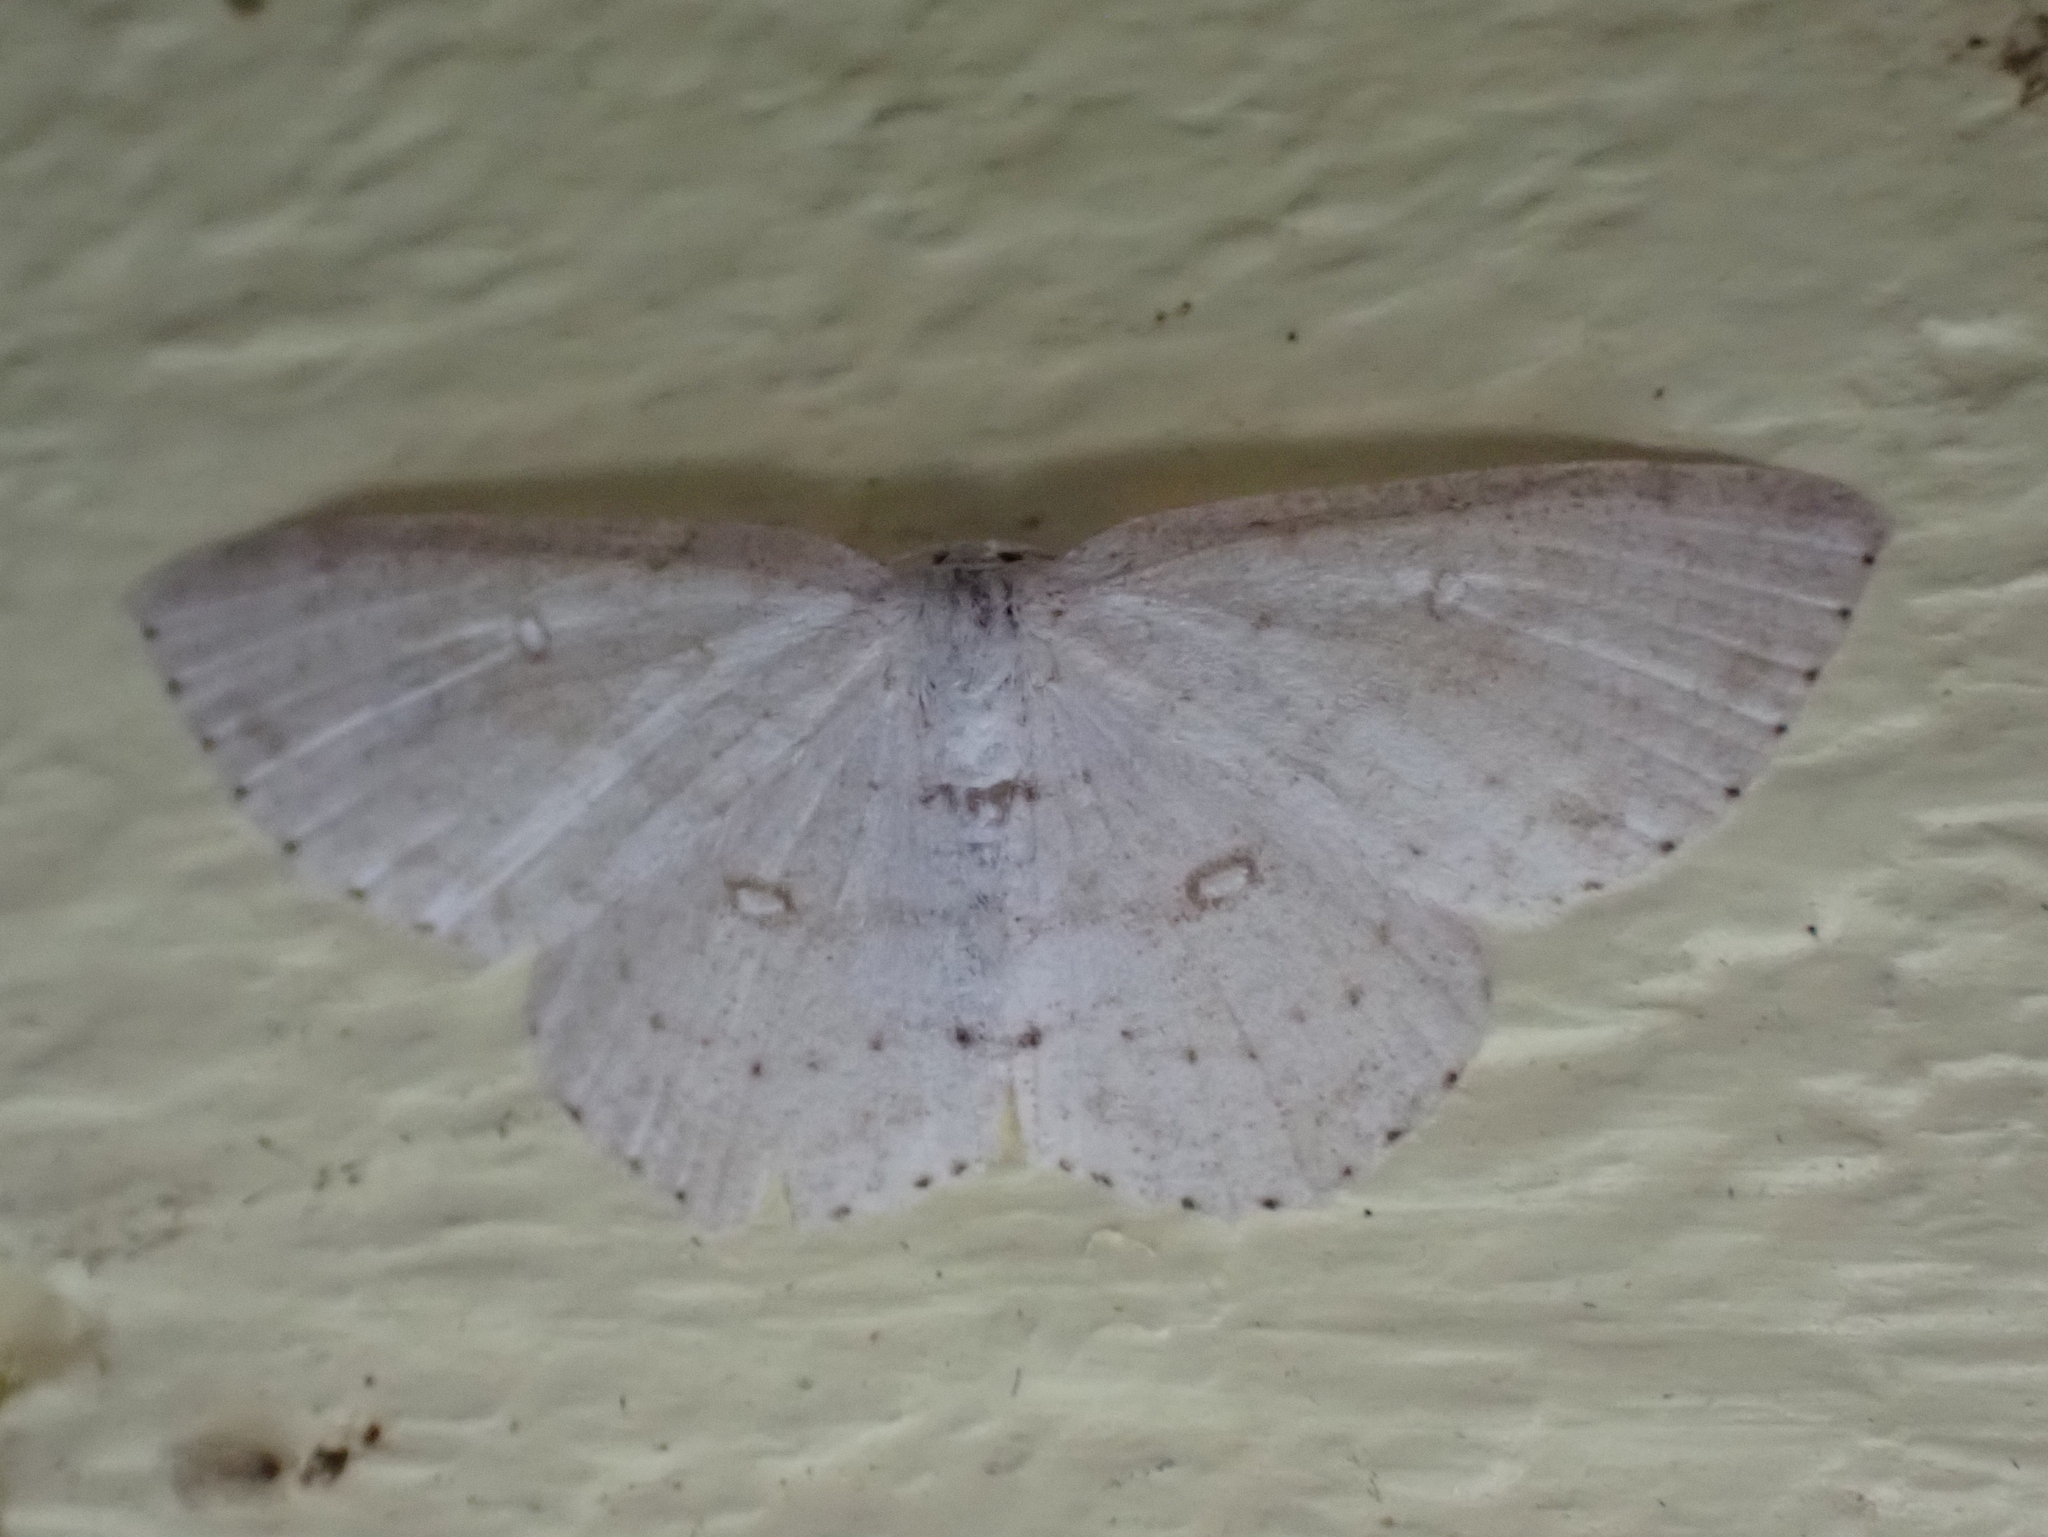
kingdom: Animalia
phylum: Arthropoda
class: Insecta
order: Lepidoptera
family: Geometridae
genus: Cyclophora
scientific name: Cyclophora pendulinaria
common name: Sweet fern geometer
